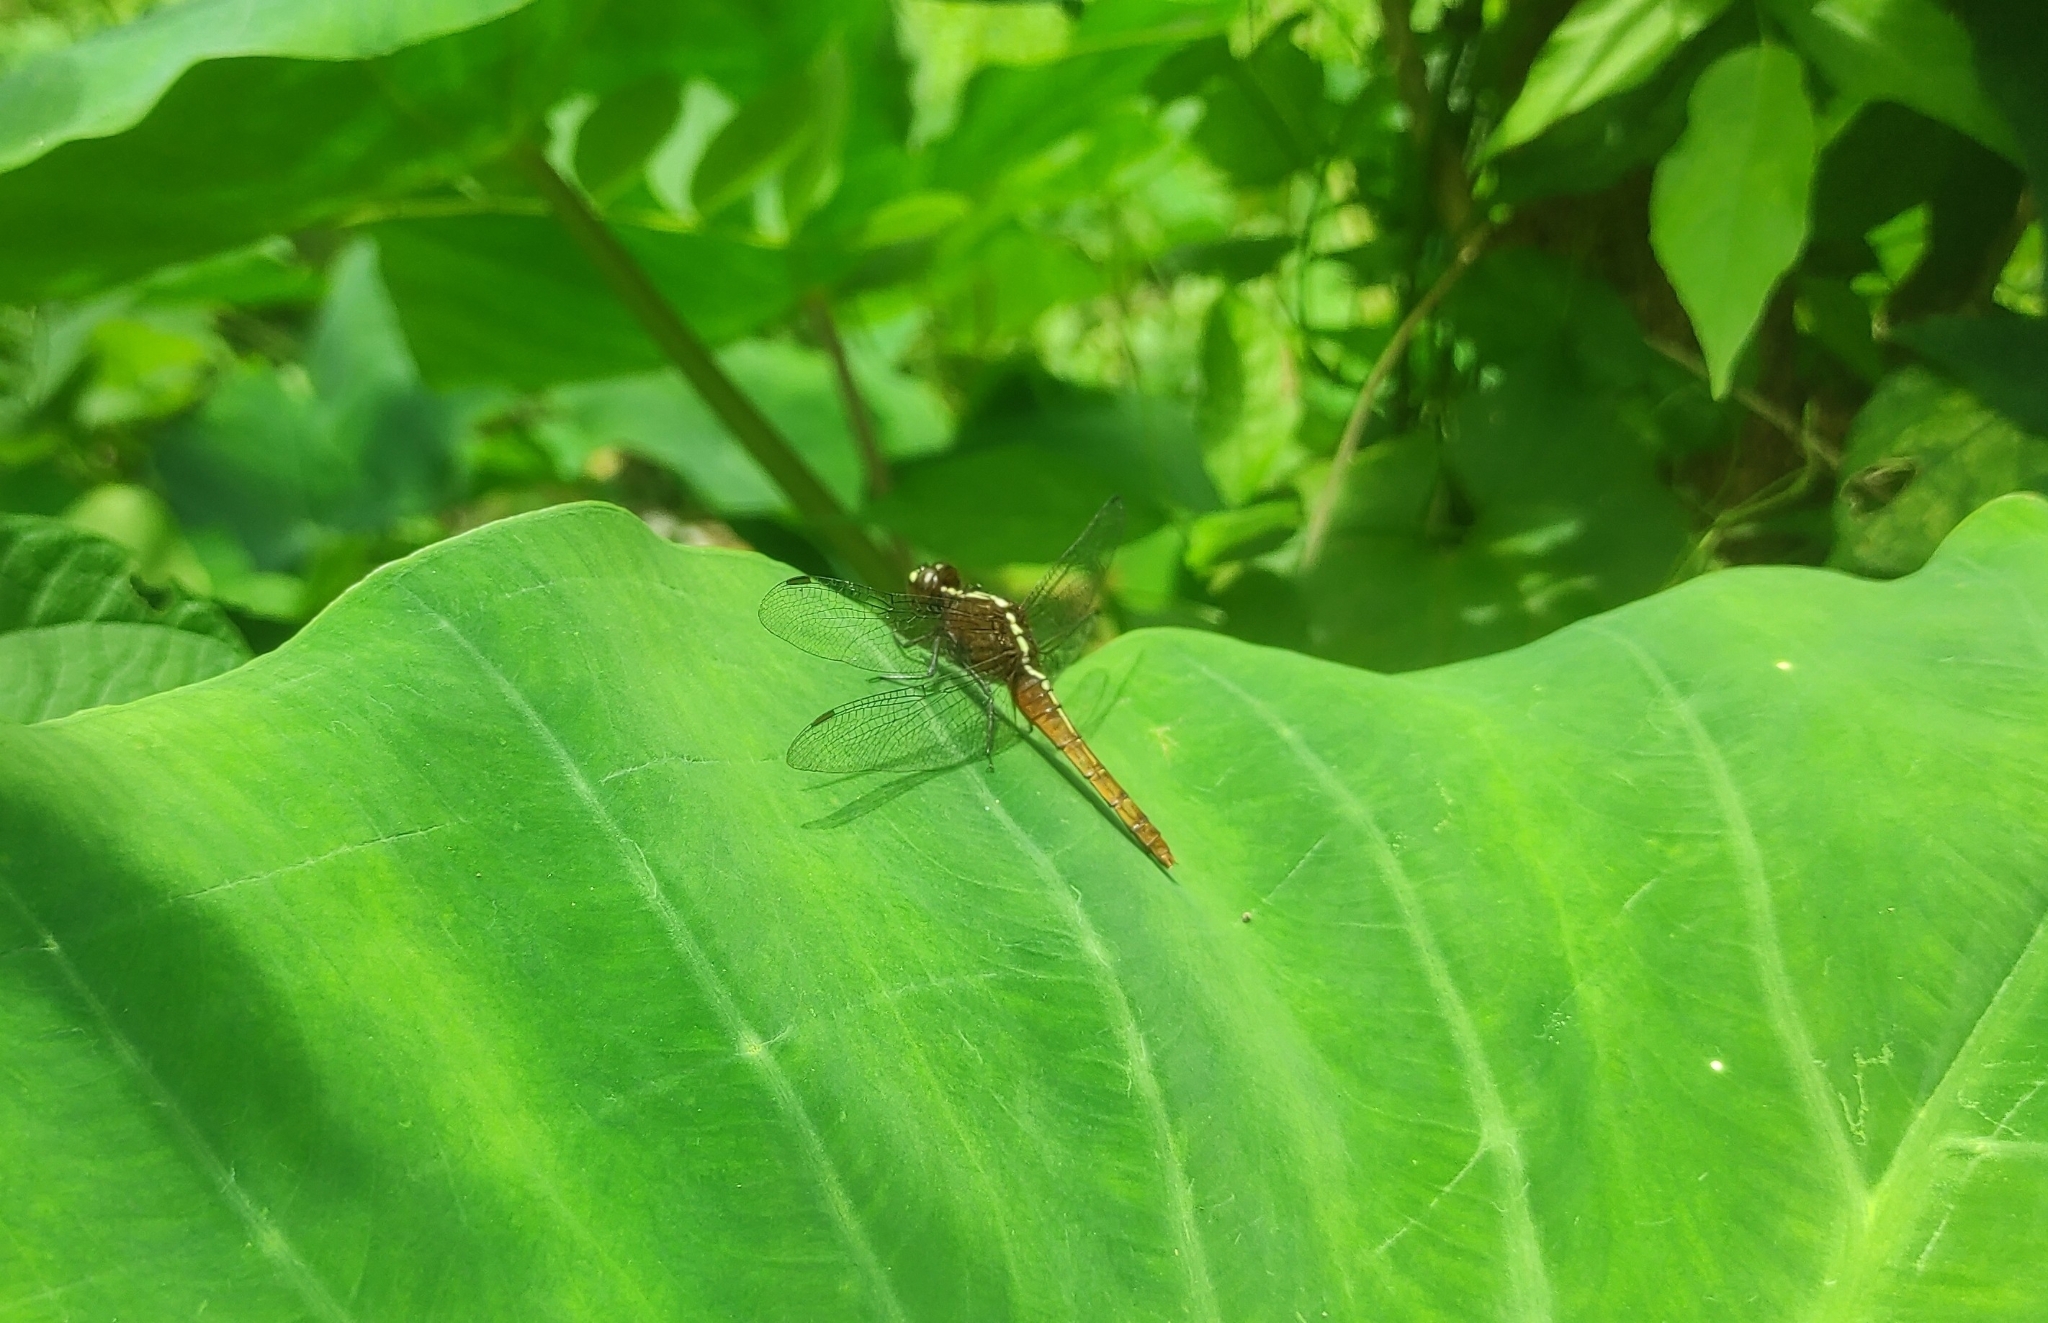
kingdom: Animalia
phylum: Arthropoda
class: Insecta
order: Odonata
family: Libellulidae
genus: Rhodothemis
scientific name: Rhodothemis rufa
